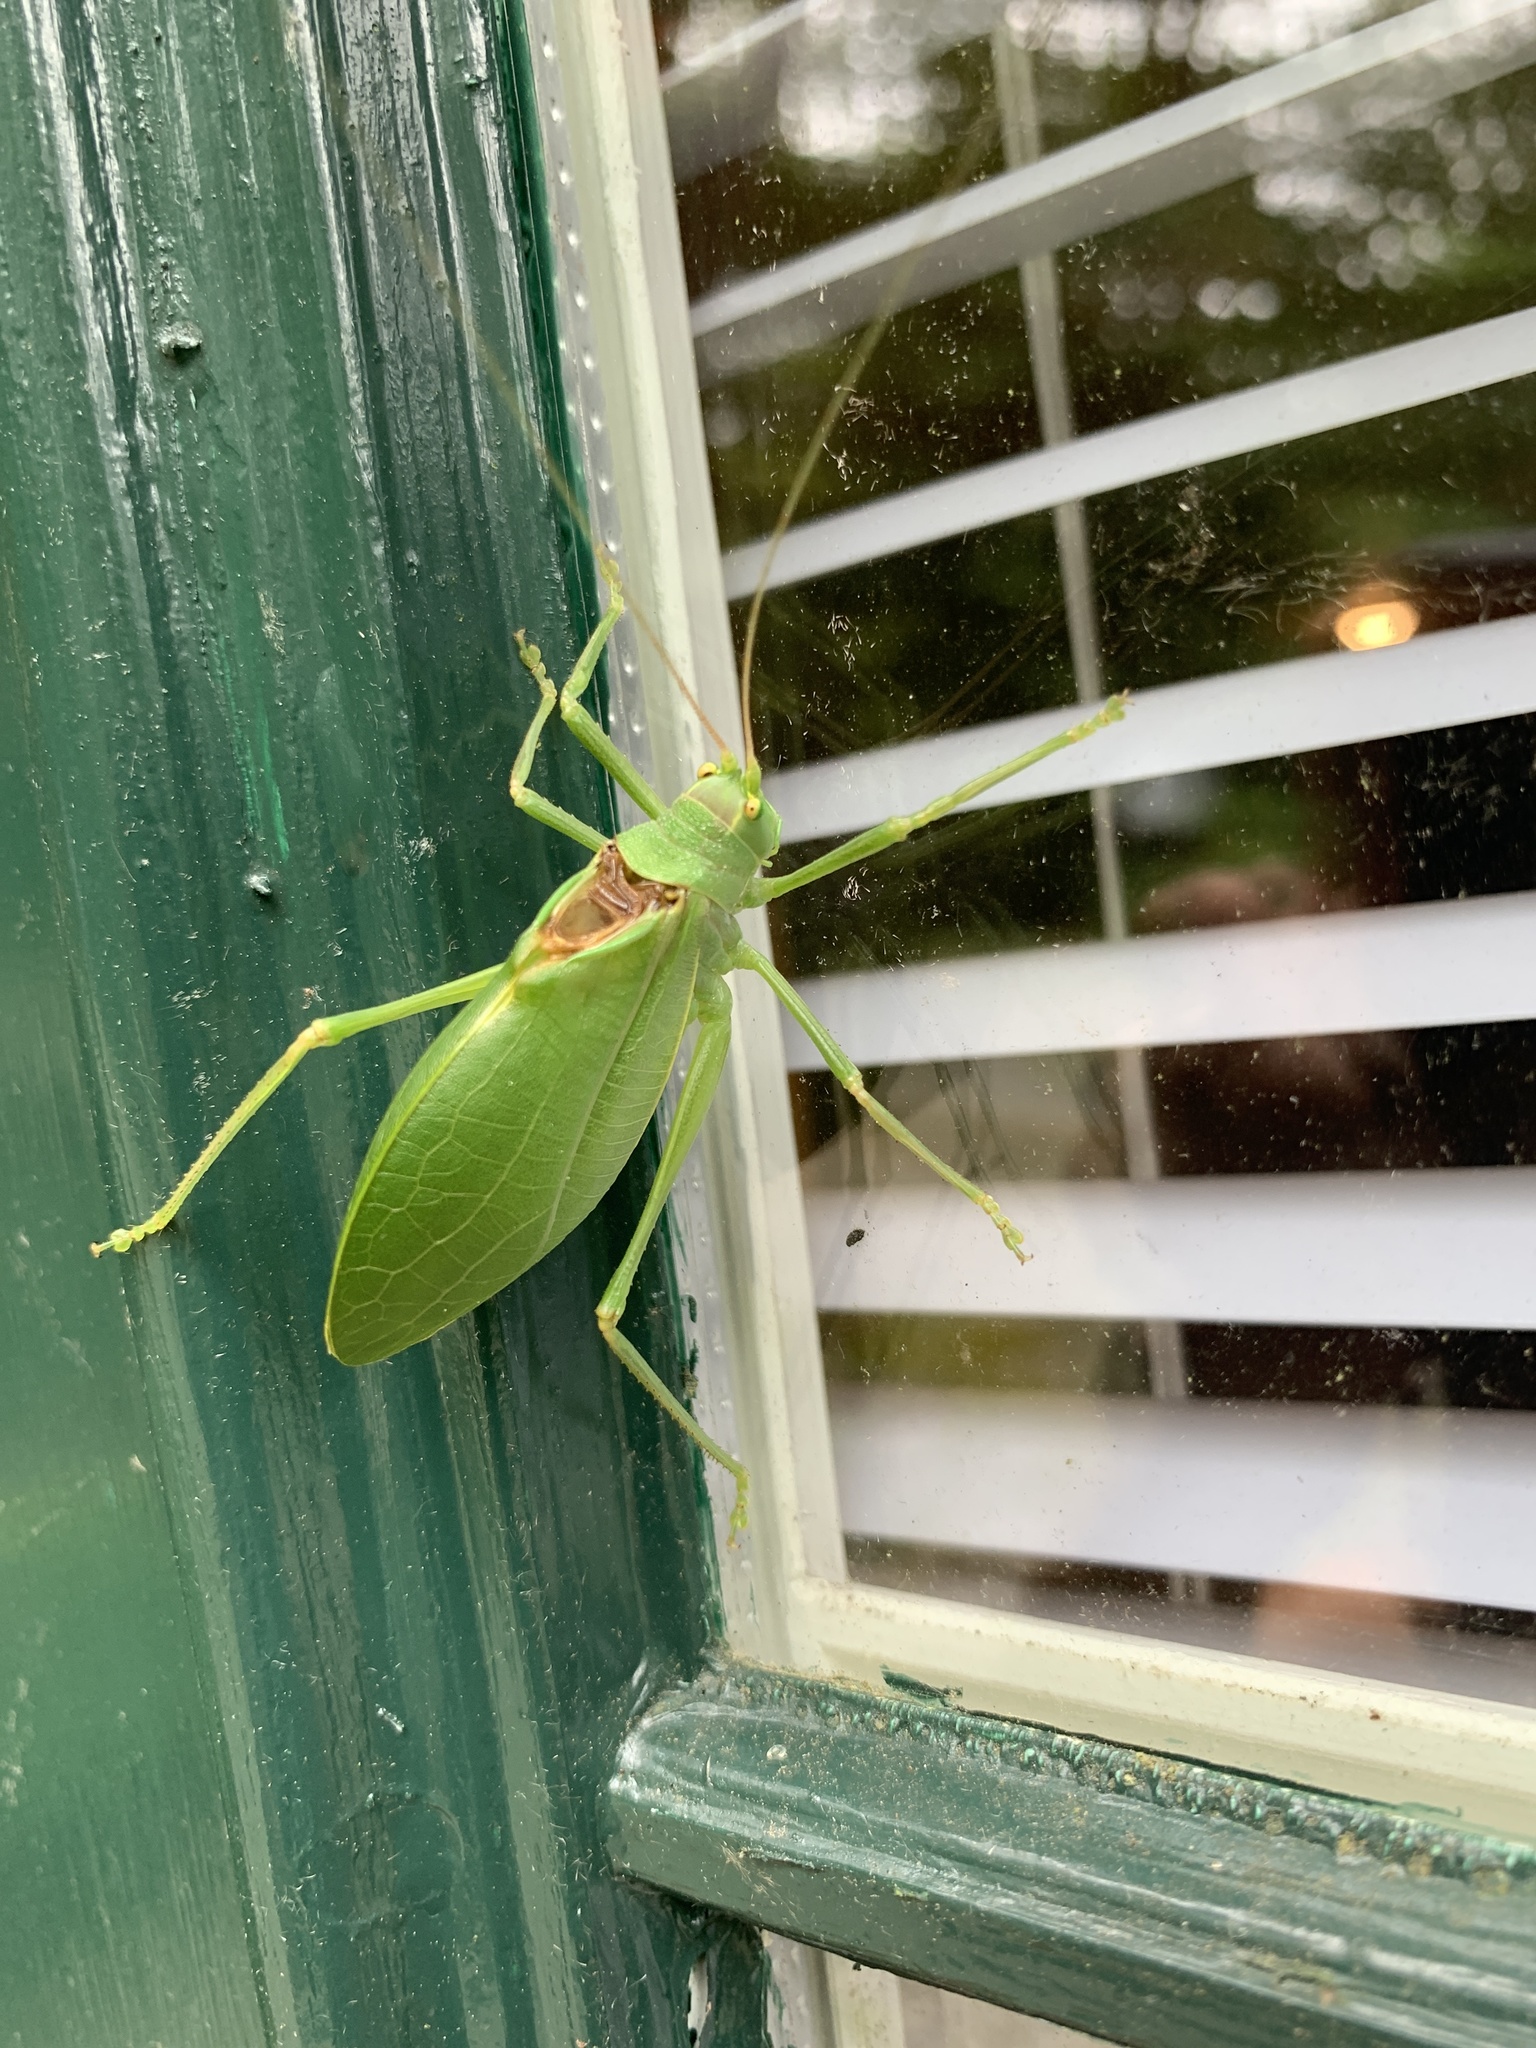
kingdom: Animalia
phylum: Arthropoda
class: Insecta
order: Orthoptera
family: Tettigoniidae
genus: Pterophylla
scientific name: Pterophylla camellifolia
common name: Common true katydid
